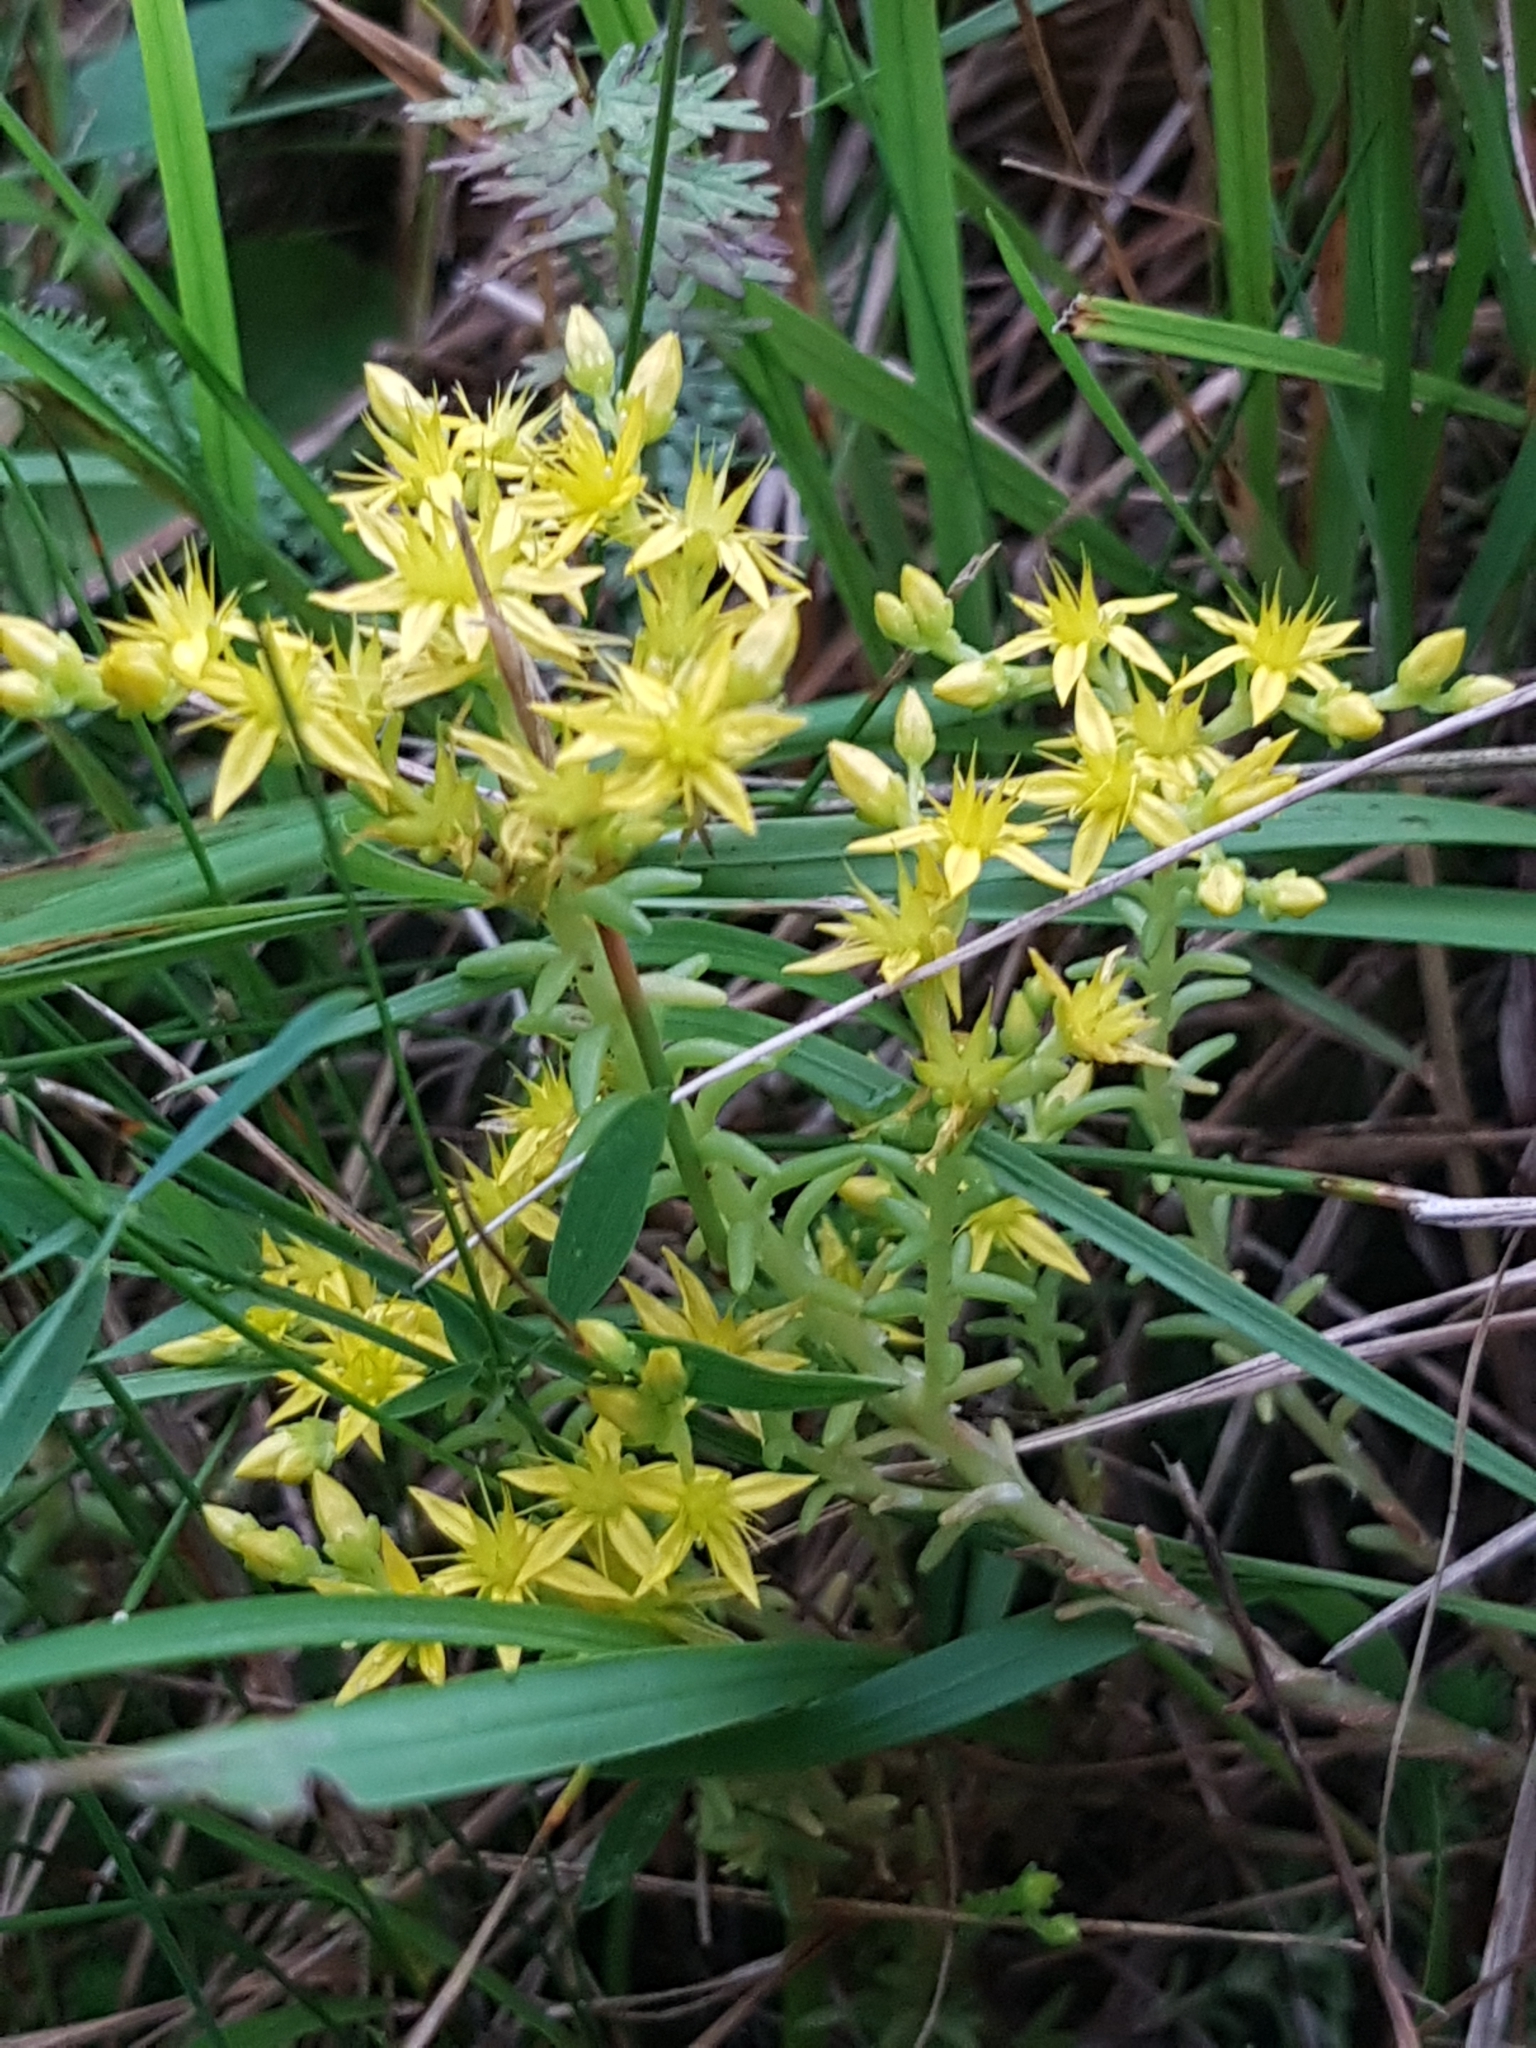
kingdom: Plantae
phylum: Tracheophyta
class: Magnoliopsida
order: Saxifragales
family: Crassulaceae
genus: Sedum
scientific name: Sedum sexangulare
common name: Tasteless stonecrop
